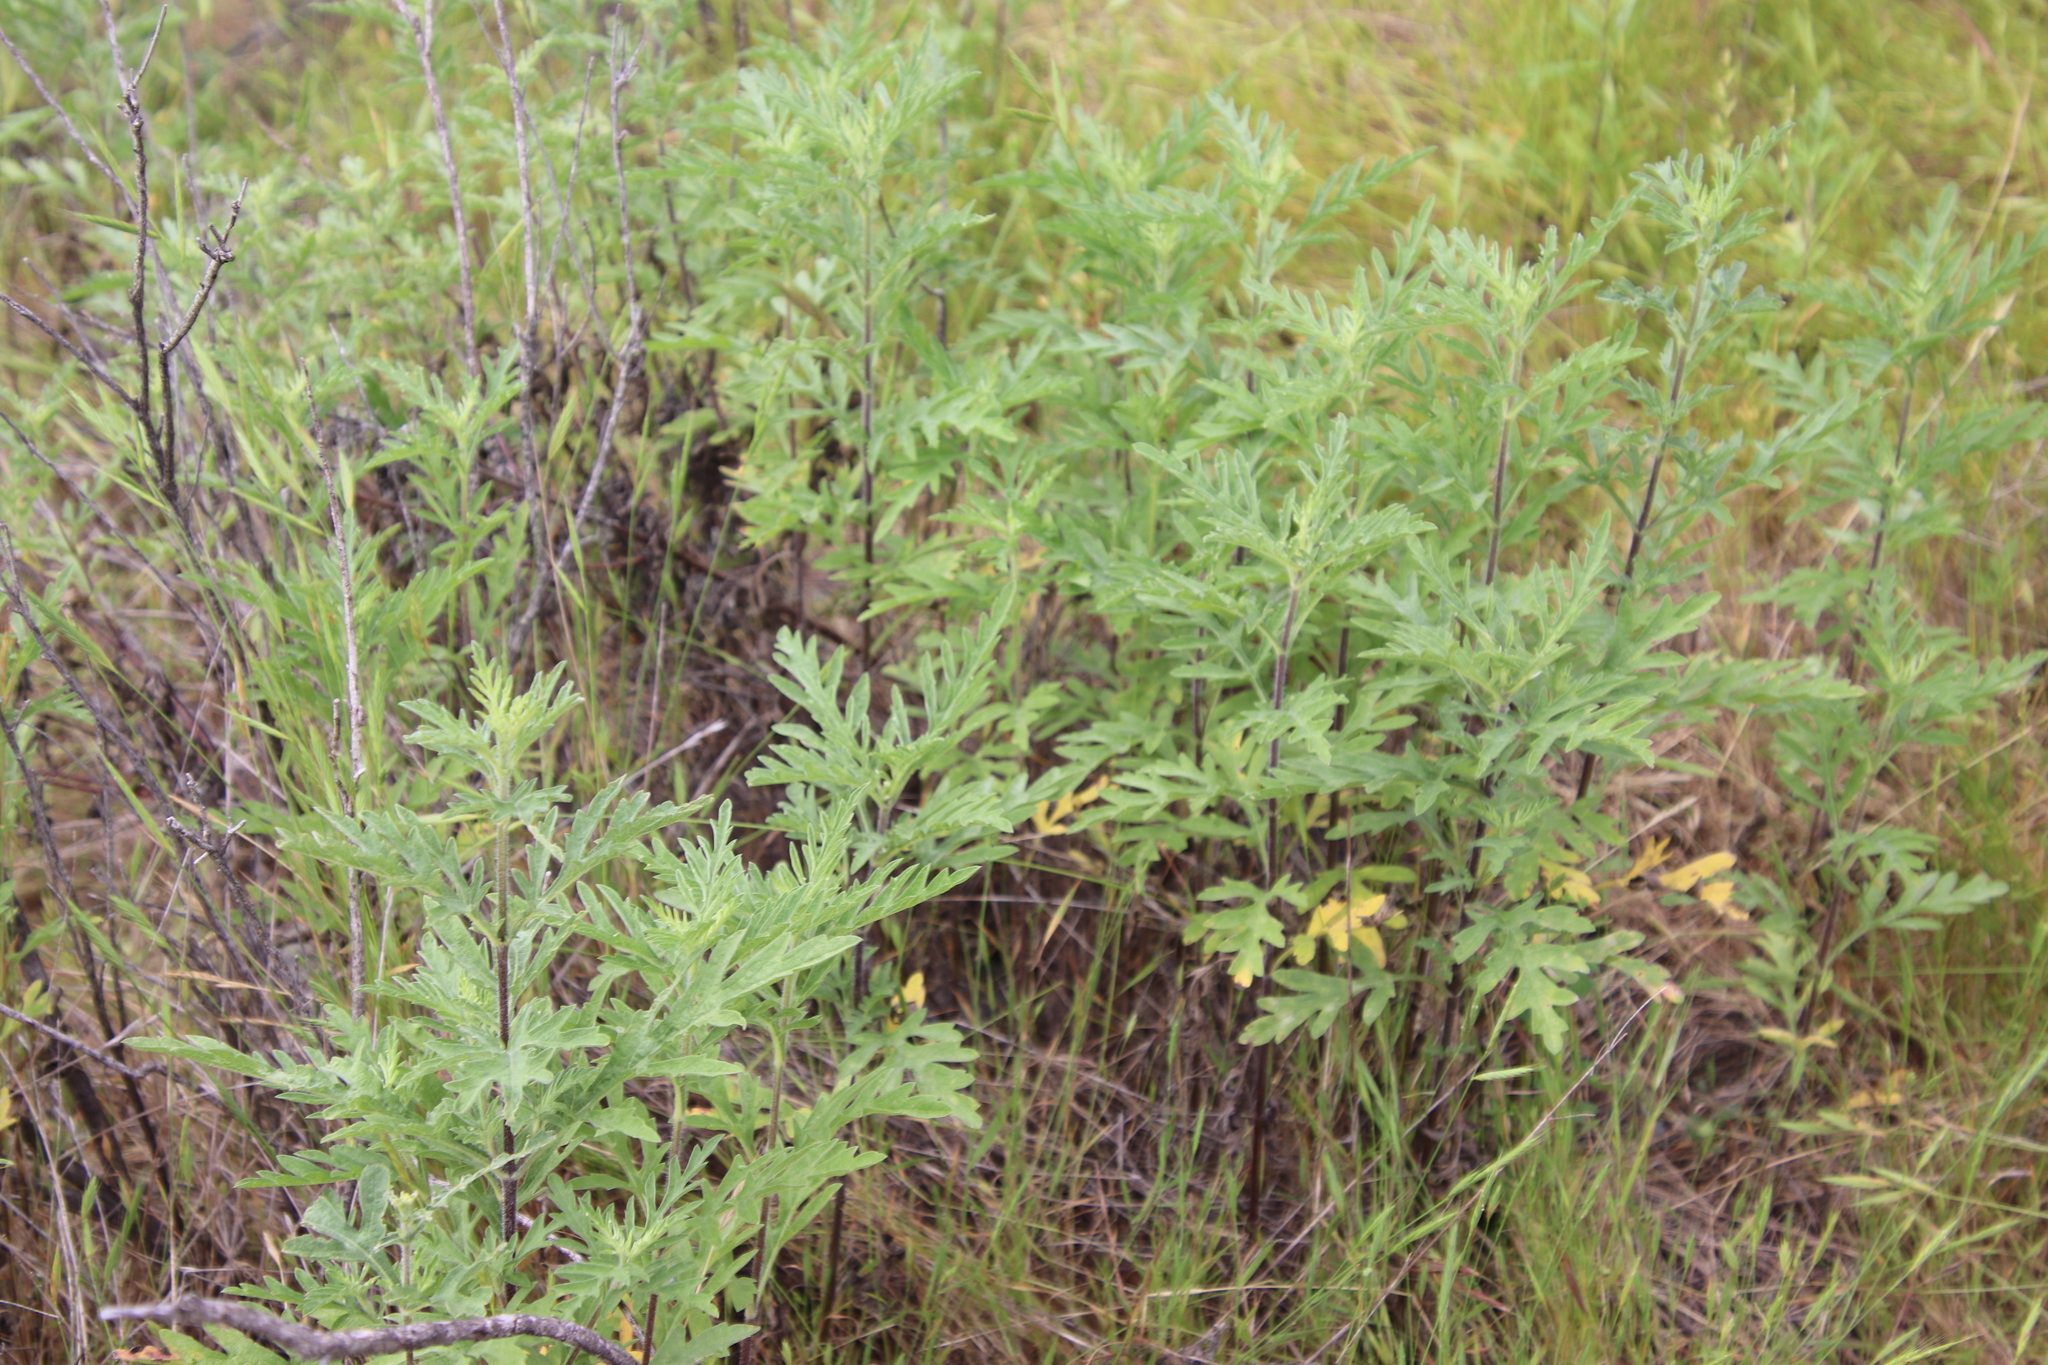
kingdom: Plantae
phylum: Tracheophyta
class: Magnoliopsida
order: Asterales
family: Asteraceae
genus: Ambrosia
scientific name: Ambrosia psilostachya
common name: Perennial ragweed
